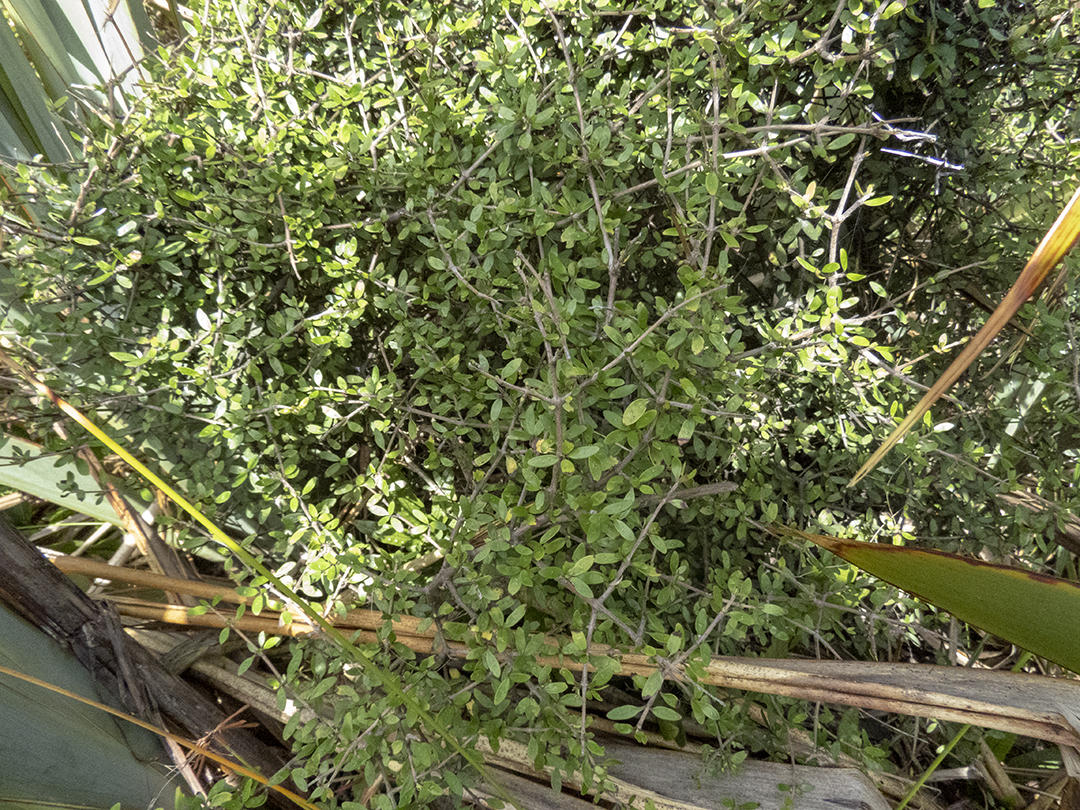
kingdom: Plantae
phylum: Tracheophyta
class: Magnoliopsida
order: Gentianales
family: Rubiaceae
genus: Coprosma
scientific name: Coprosma propinqua
